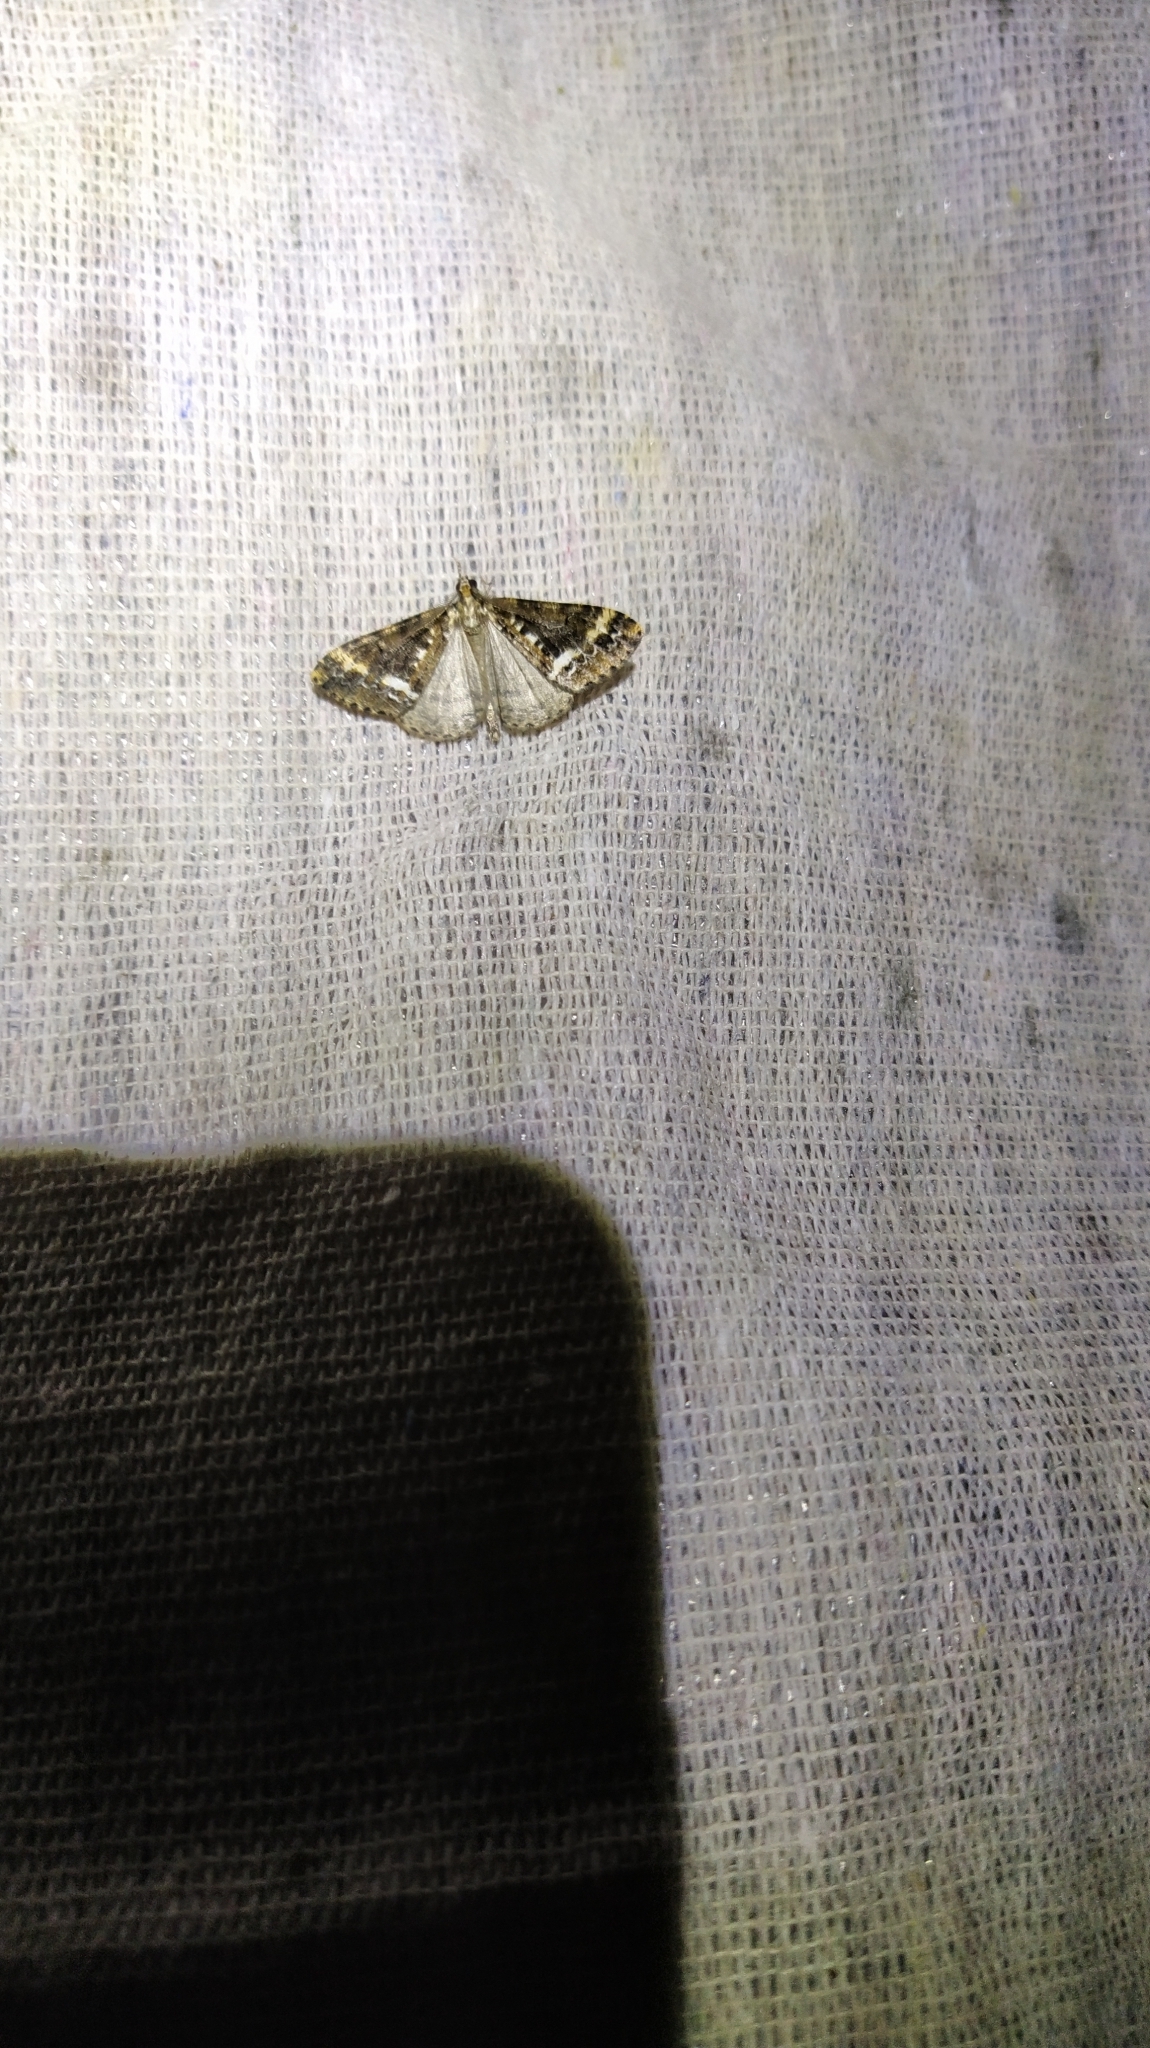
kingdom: Animalia
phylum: Arthropoda
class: Insecta
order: Lepidoptera
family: Geometridae
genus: Pseudocoremia
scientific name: Pseudocoremia leucelaea
